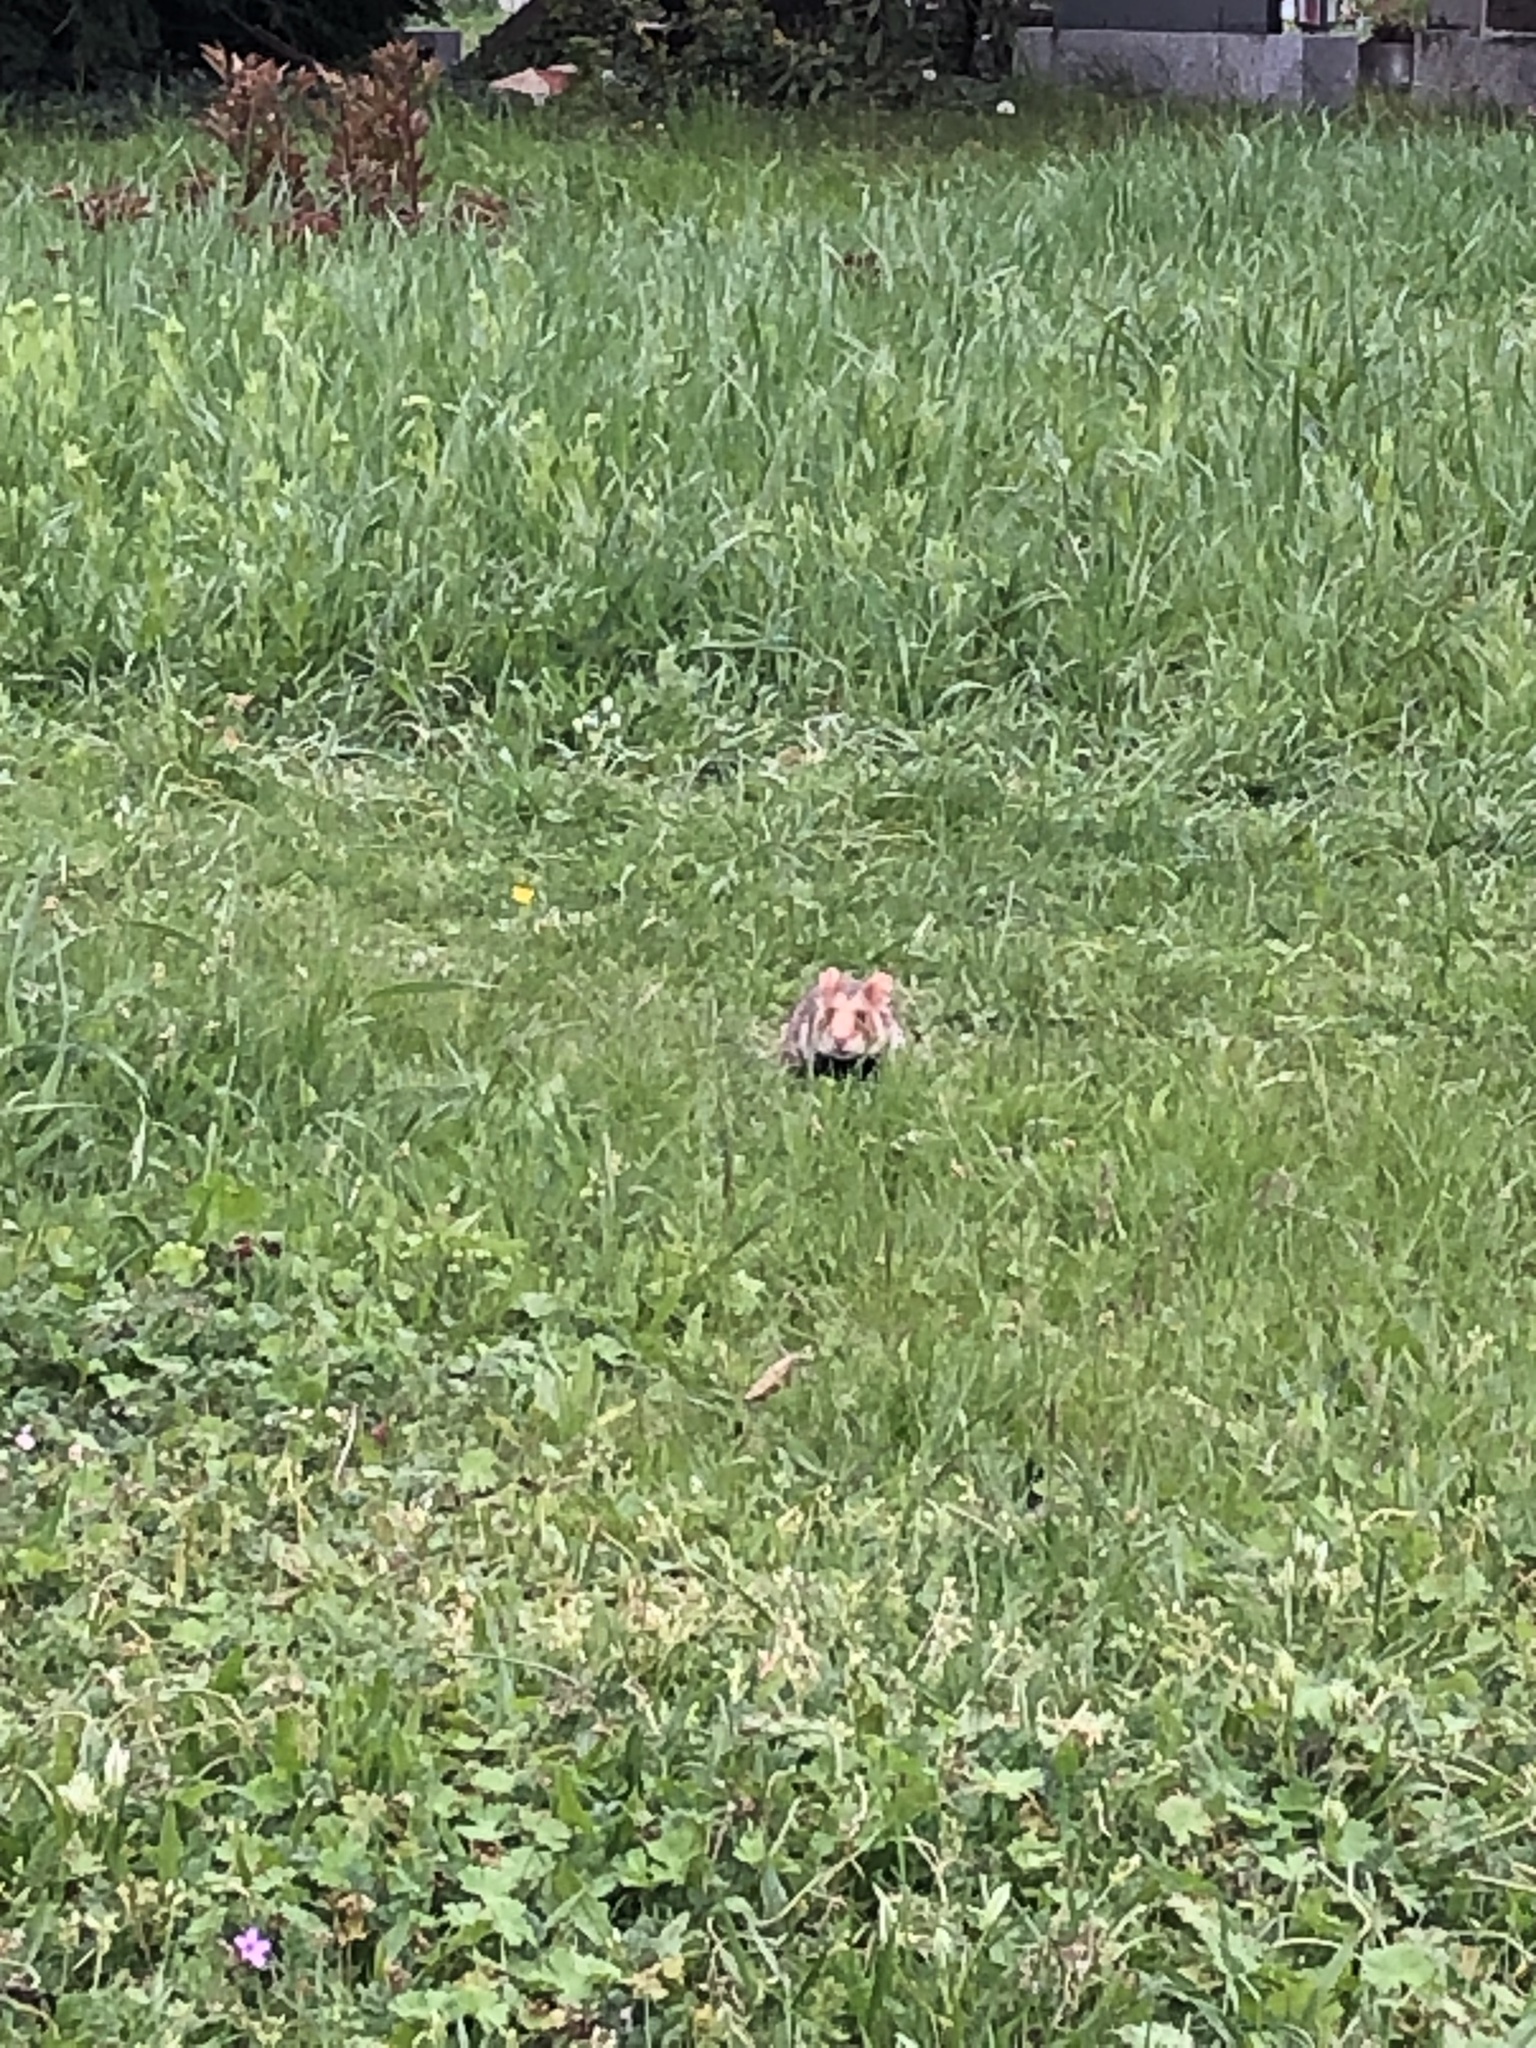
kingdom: Animalia
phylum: Chordata
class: Mammalia
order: Rodentia
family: Cricetidae
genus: Cricetus
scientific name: Cricetus cricetus
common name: Common hamster
